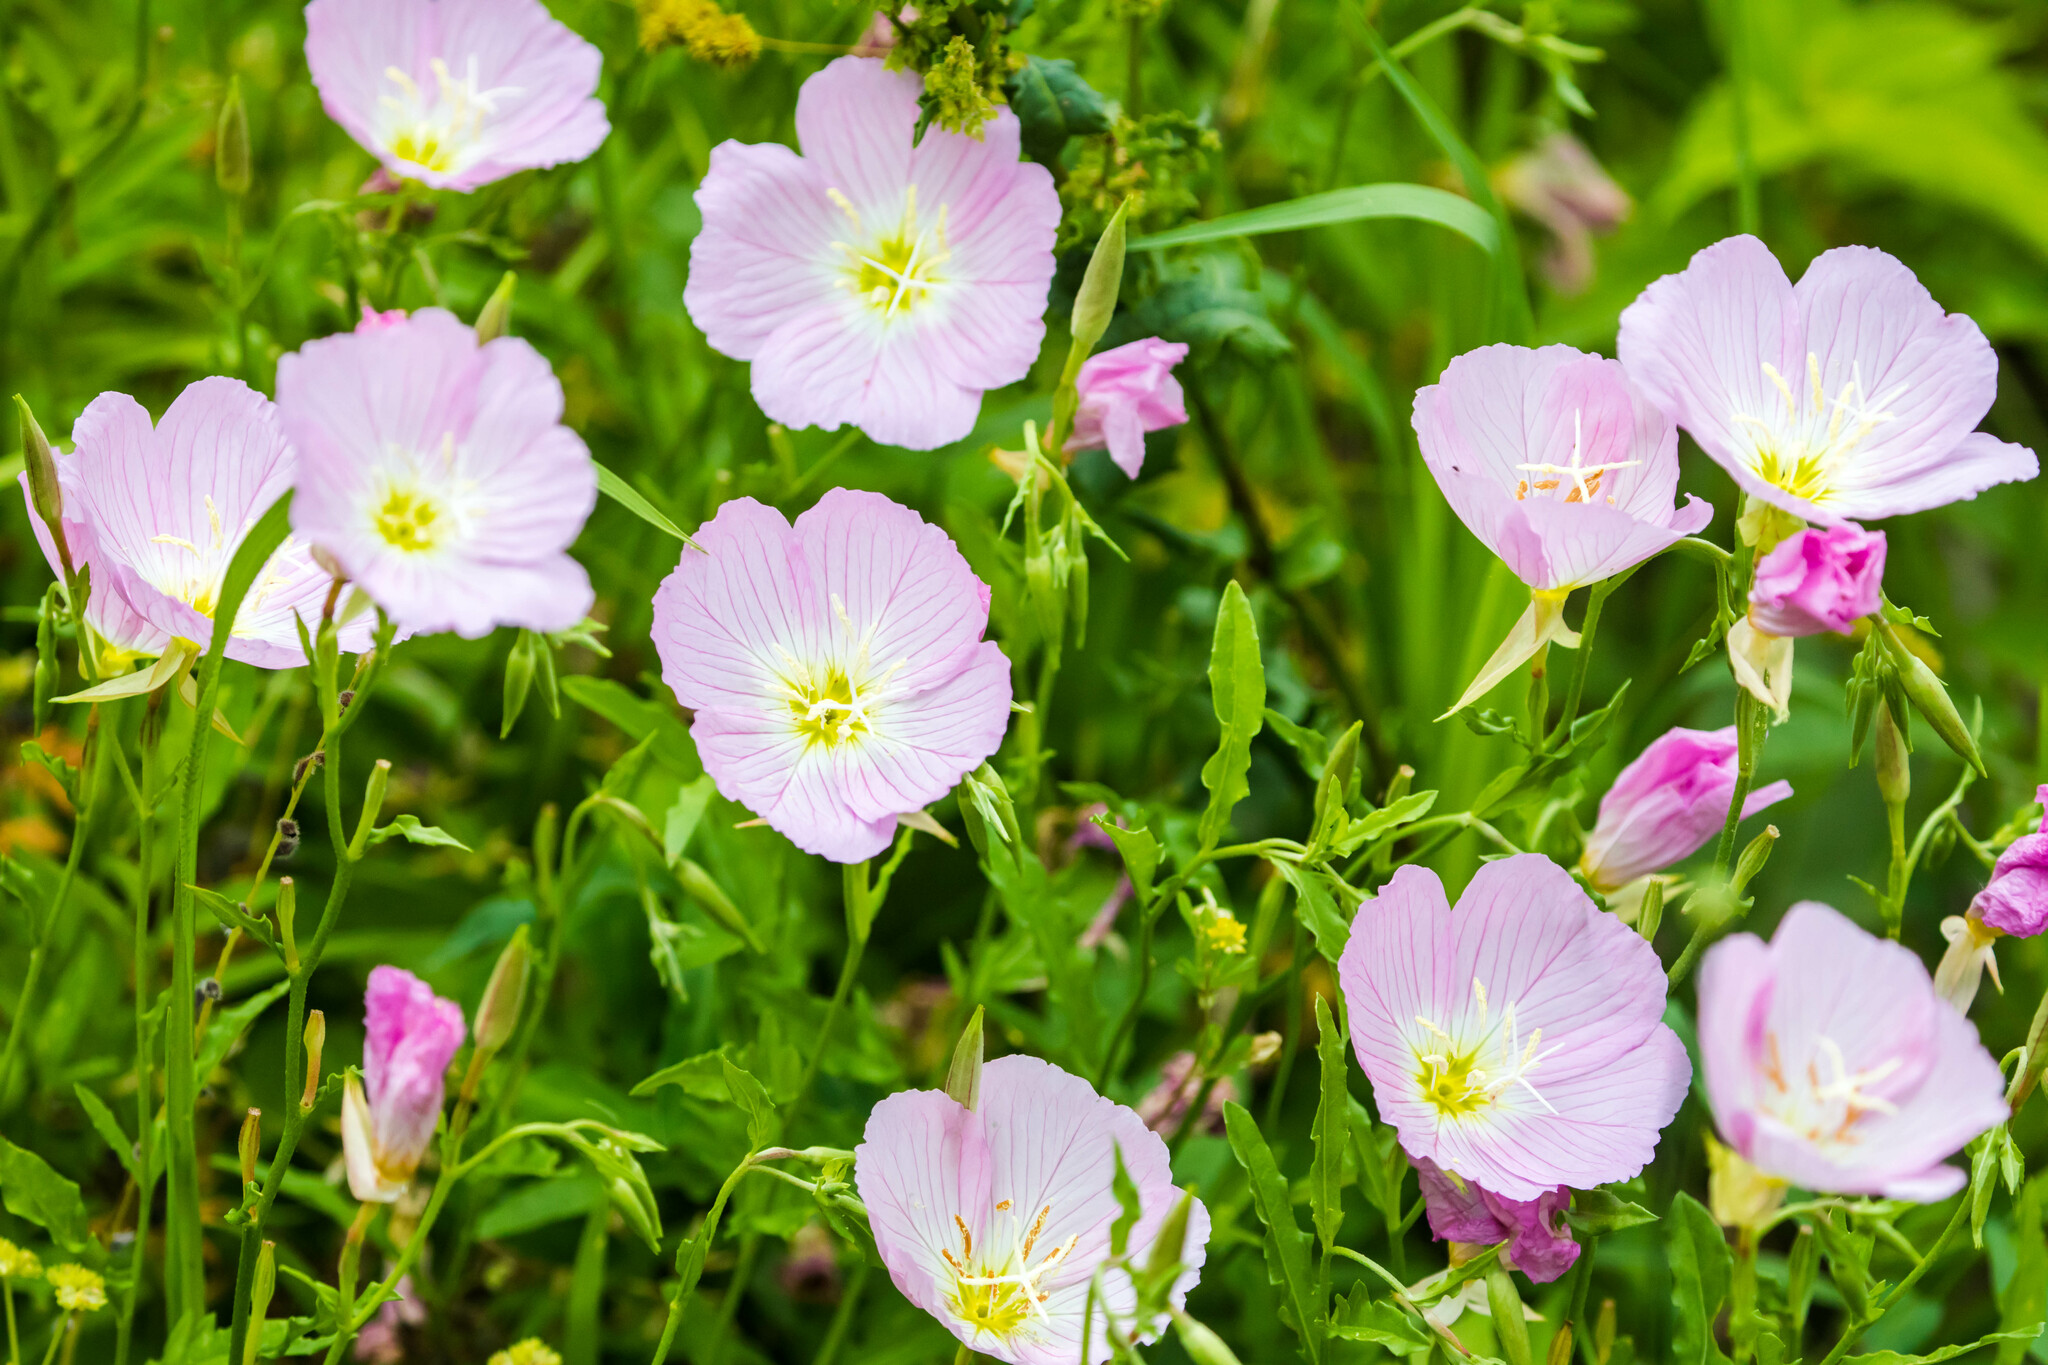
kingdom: Plantae
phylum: Tracheophyta
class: Magnoliopsida
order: Myrtales
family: Onagraceae
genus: Oenothera
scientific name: Oenothera speciosa
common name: White evening-primrose
